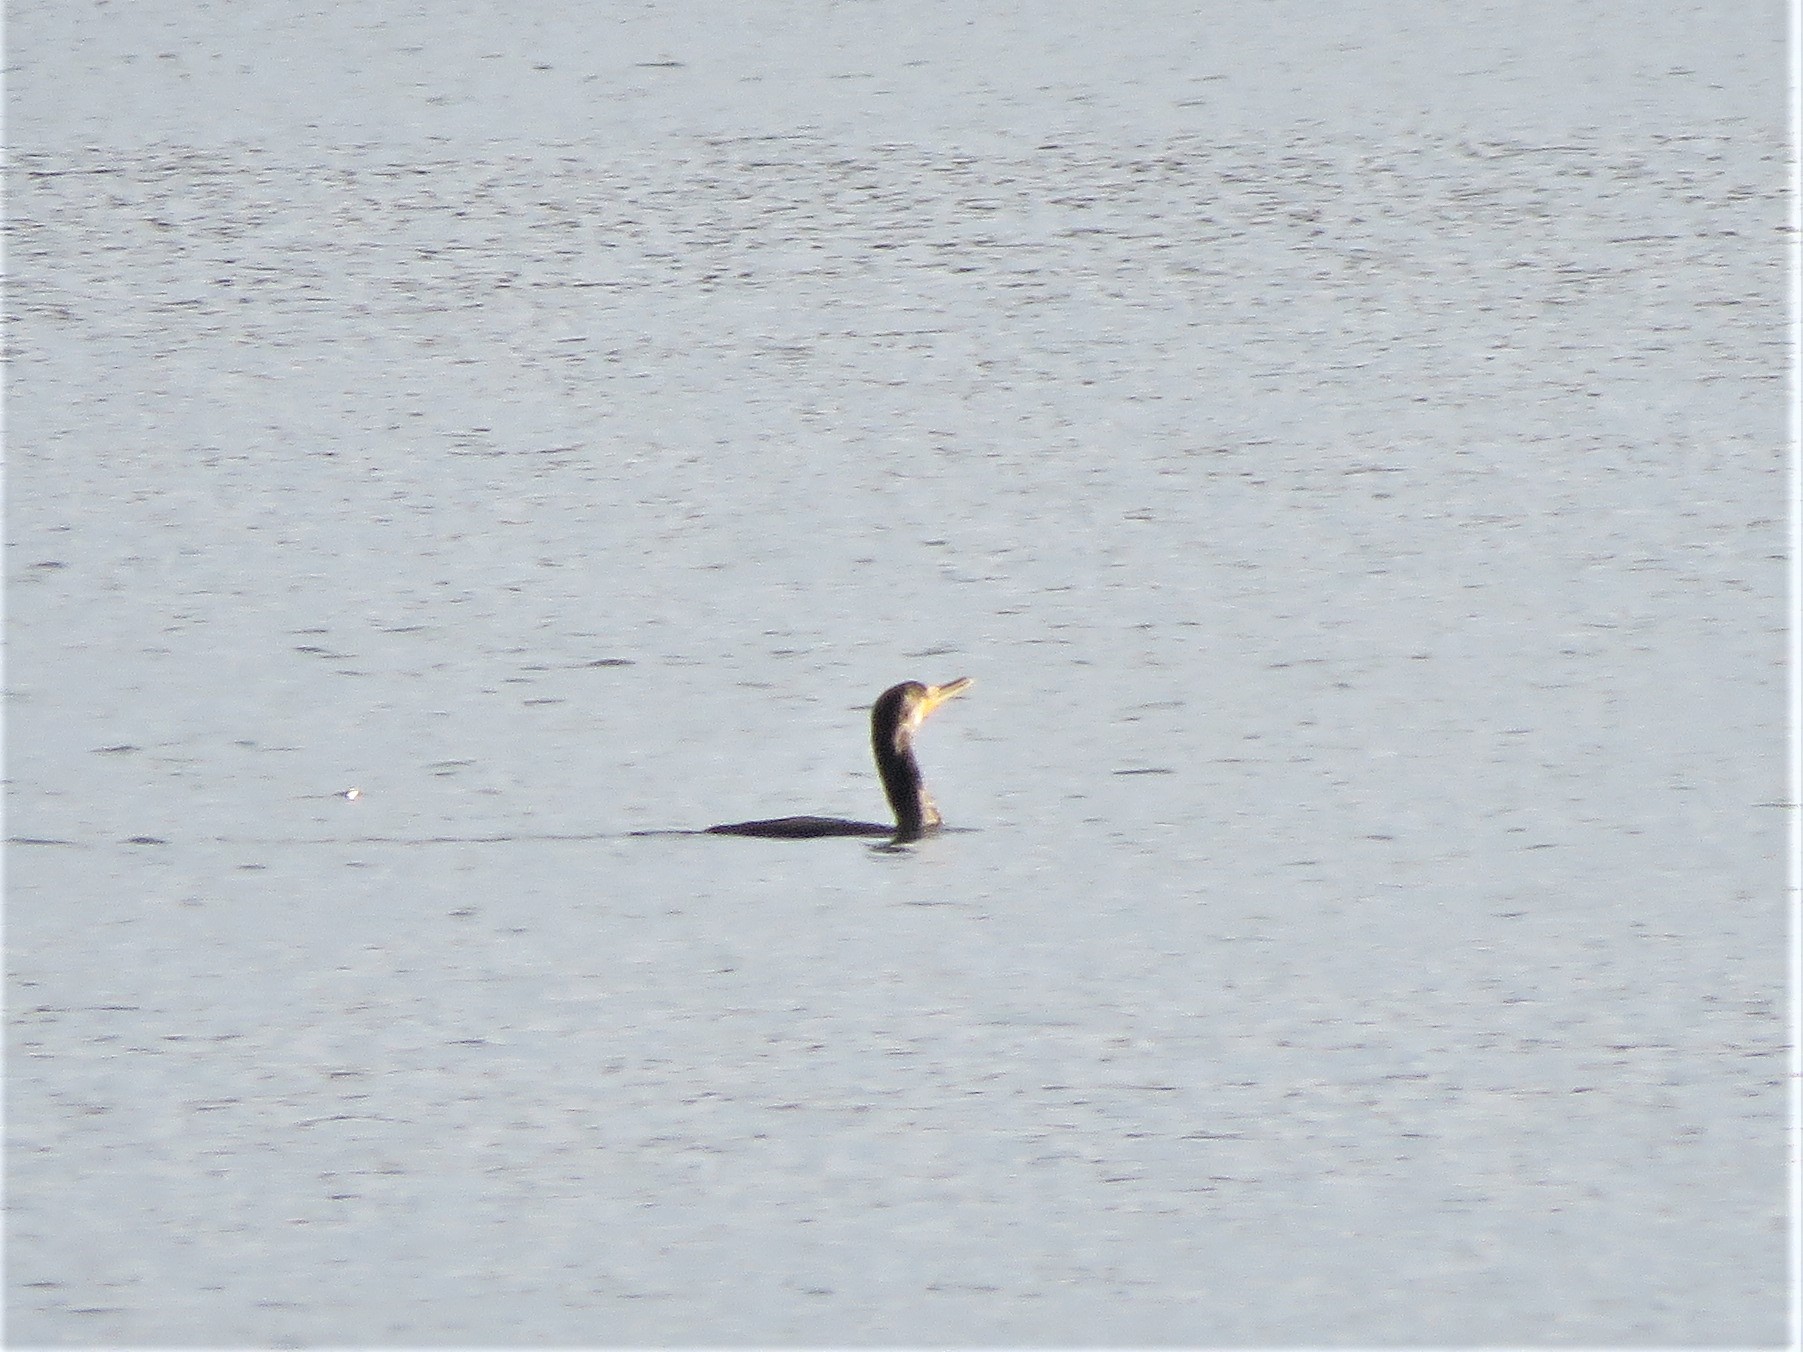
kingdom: Animalia
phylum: Chordata
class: Aves
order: Suliformes
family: Phalacrocoracidae
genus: Phalacrocorax
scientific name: Phalacrocorax auritus
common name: Double-crested cormorant
